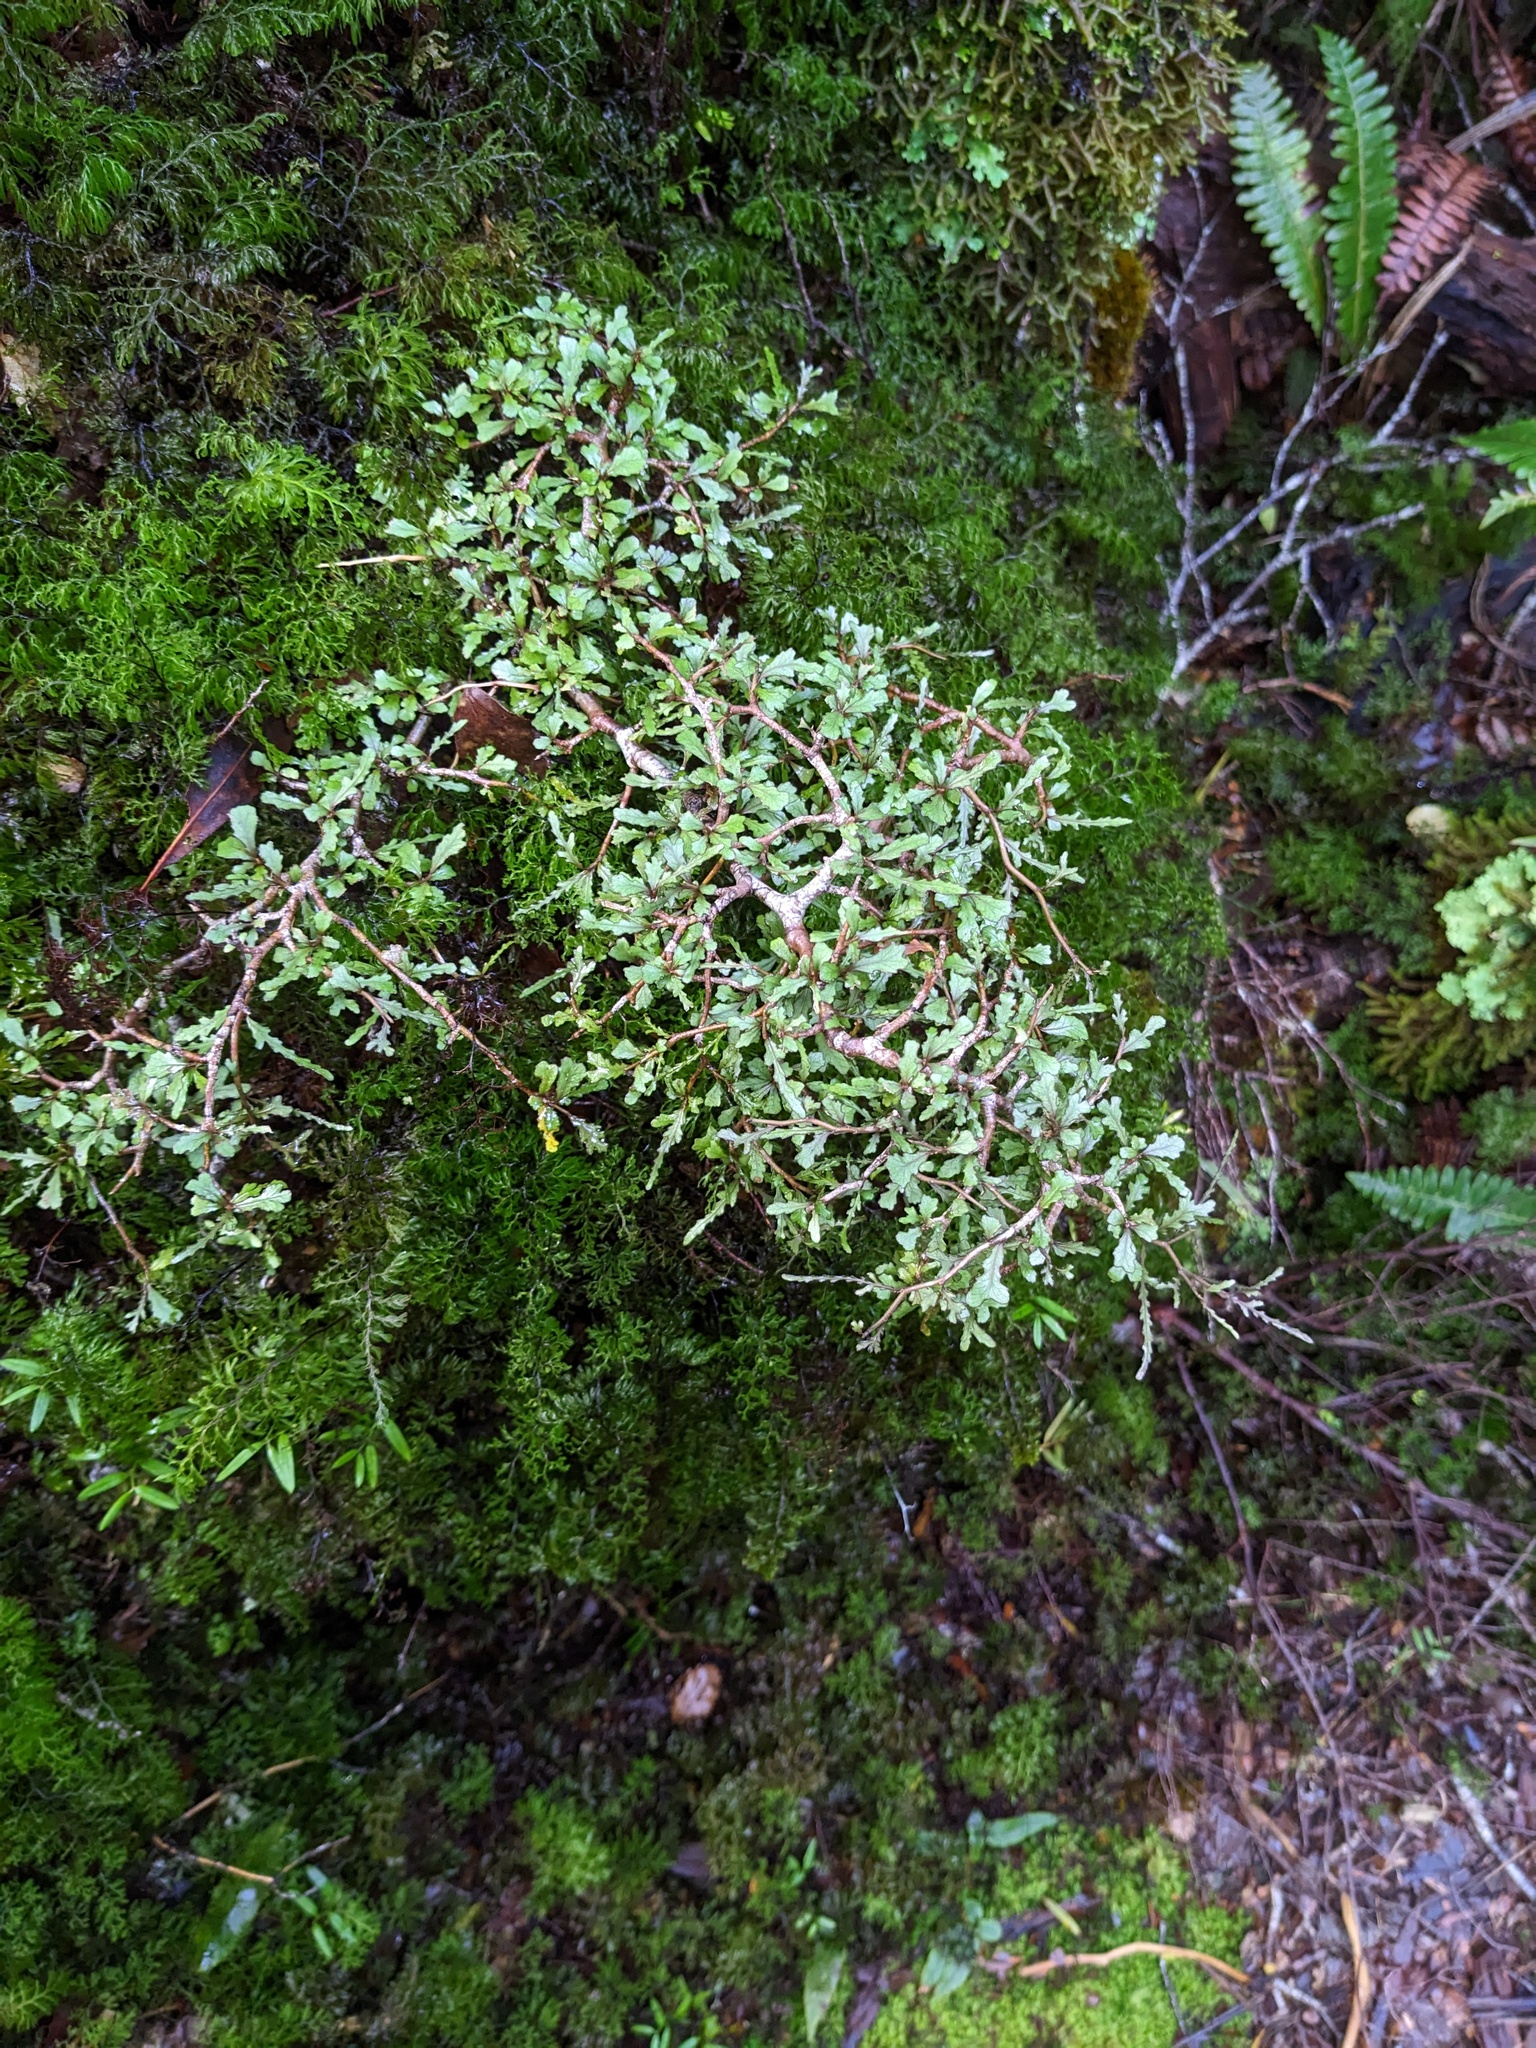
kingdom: Plantae
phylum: Tracheophyta
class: Magnoliopsida
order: Oxalidales
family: Elaeocarpaceae
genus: Elaeocarpus
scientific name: Elaeocarpus hookerianus
